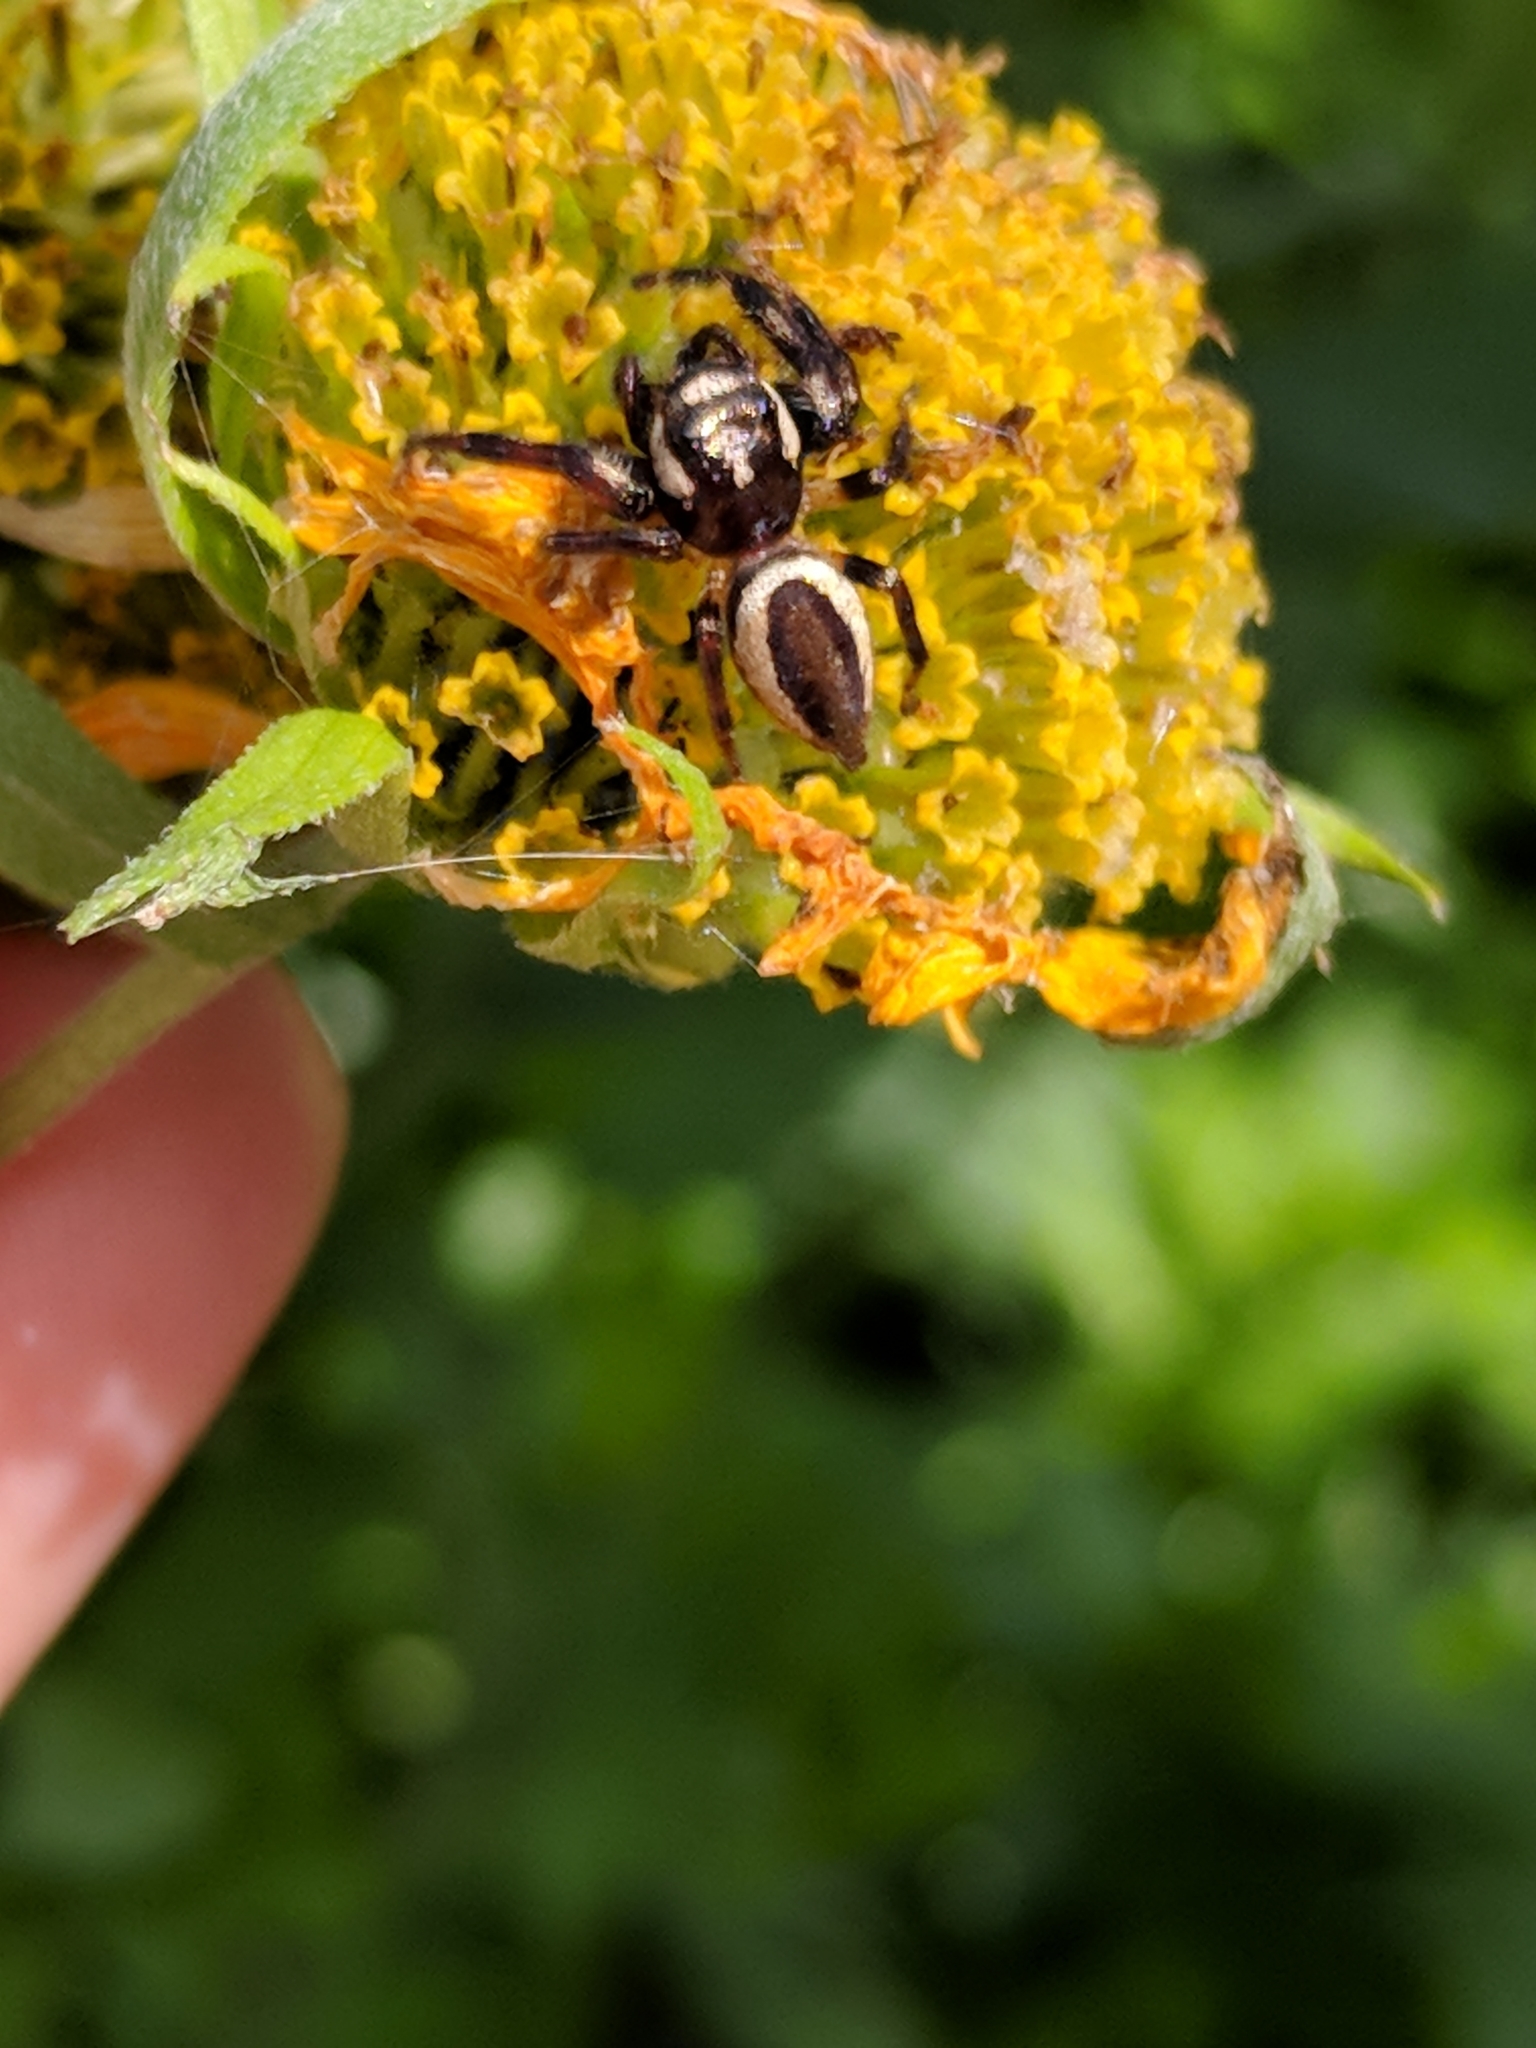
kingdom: Animalia
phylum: Arthropoda
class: Arachnida
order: Araneae
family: Salticidae
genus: Eris
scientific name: Eris militaris
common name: Bronze jumper
